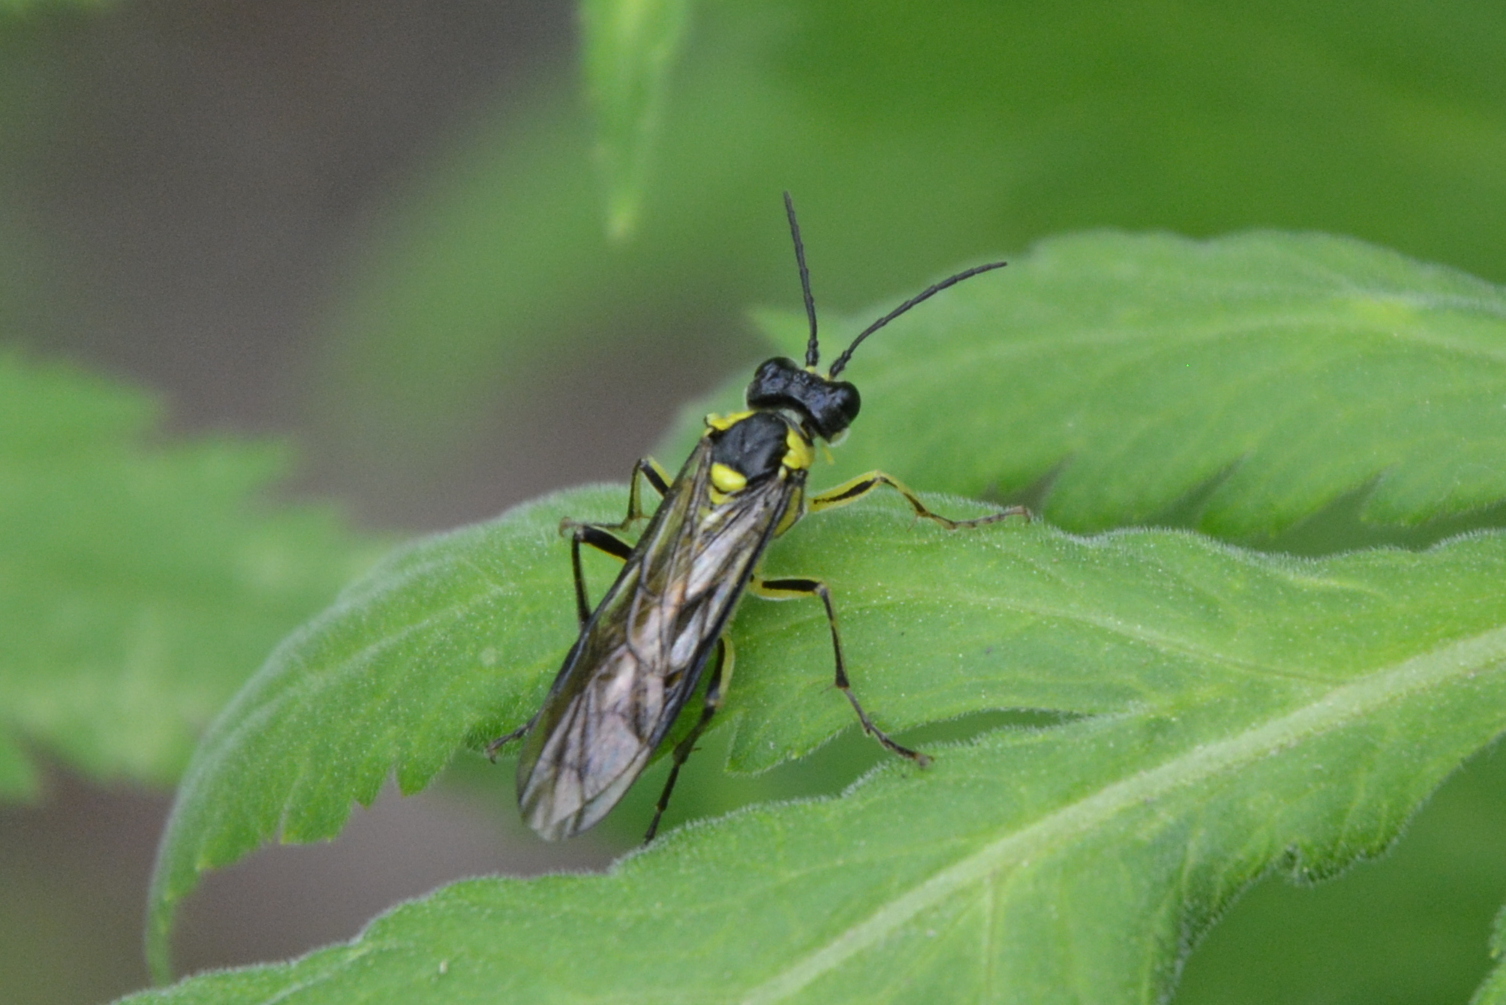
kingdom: Animalia
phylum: Arthropoda
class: Insecta
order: Hymenoptera
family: Tenthredinidae
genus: Tenthredo
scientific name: Tenthredo mesomela
